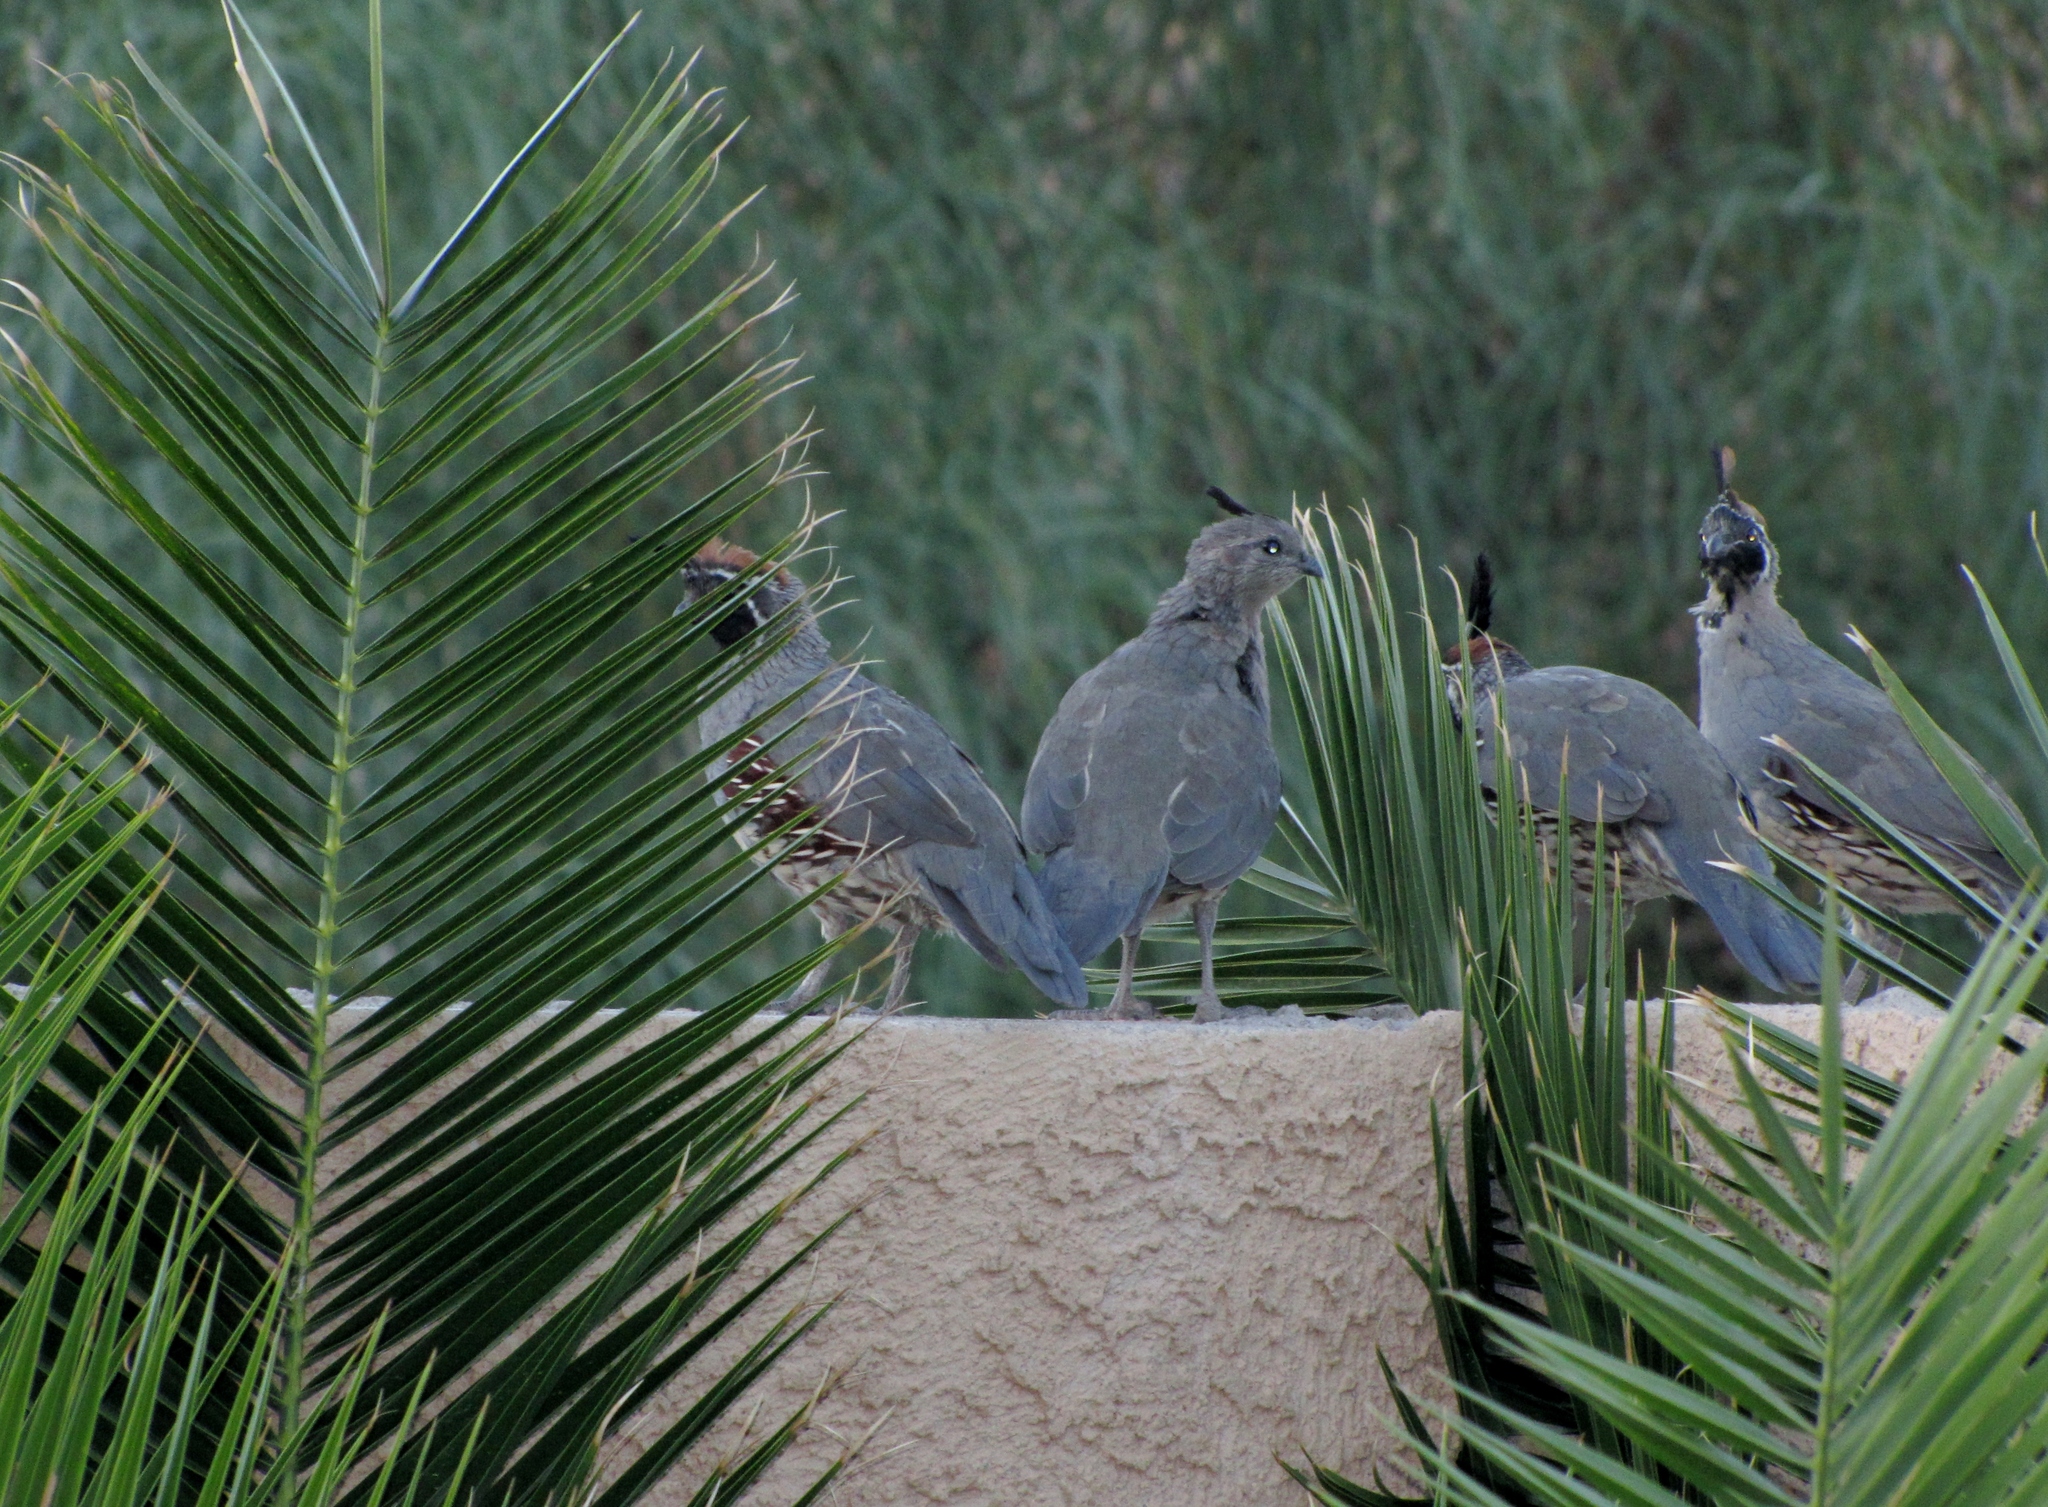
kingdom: Animalia
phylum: Chordata
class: Aves
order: Galliformes
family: Odontophoridae
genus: Callipepla
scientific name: Callipepla gambelii
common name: Gambel's quail
